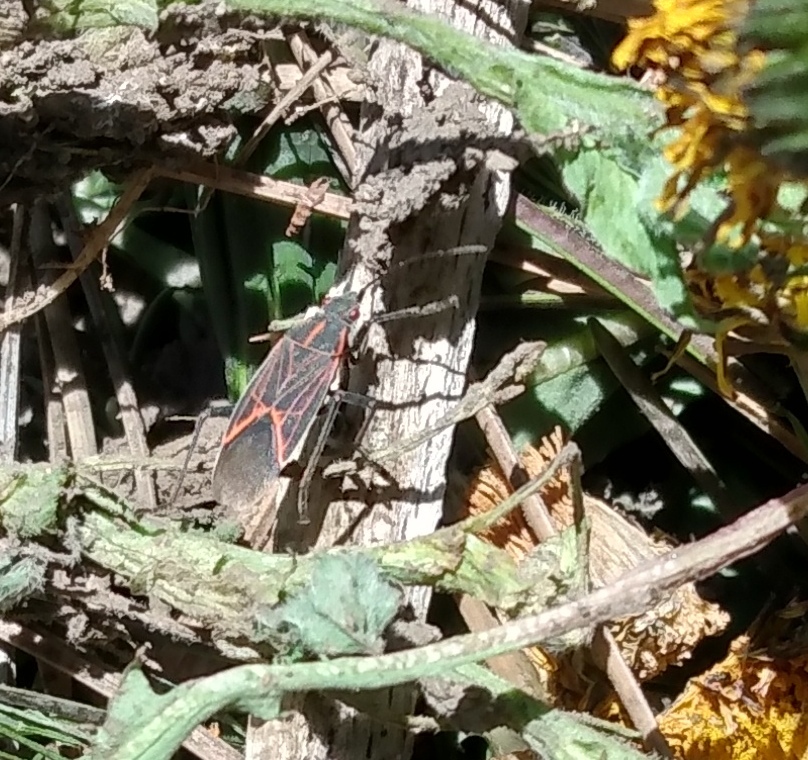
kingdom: Animalia
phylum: Arthropoda
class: Insecta
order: Hemiptera
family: Rhopalidae
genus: Boisea
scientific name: Boisea rubrolineata
